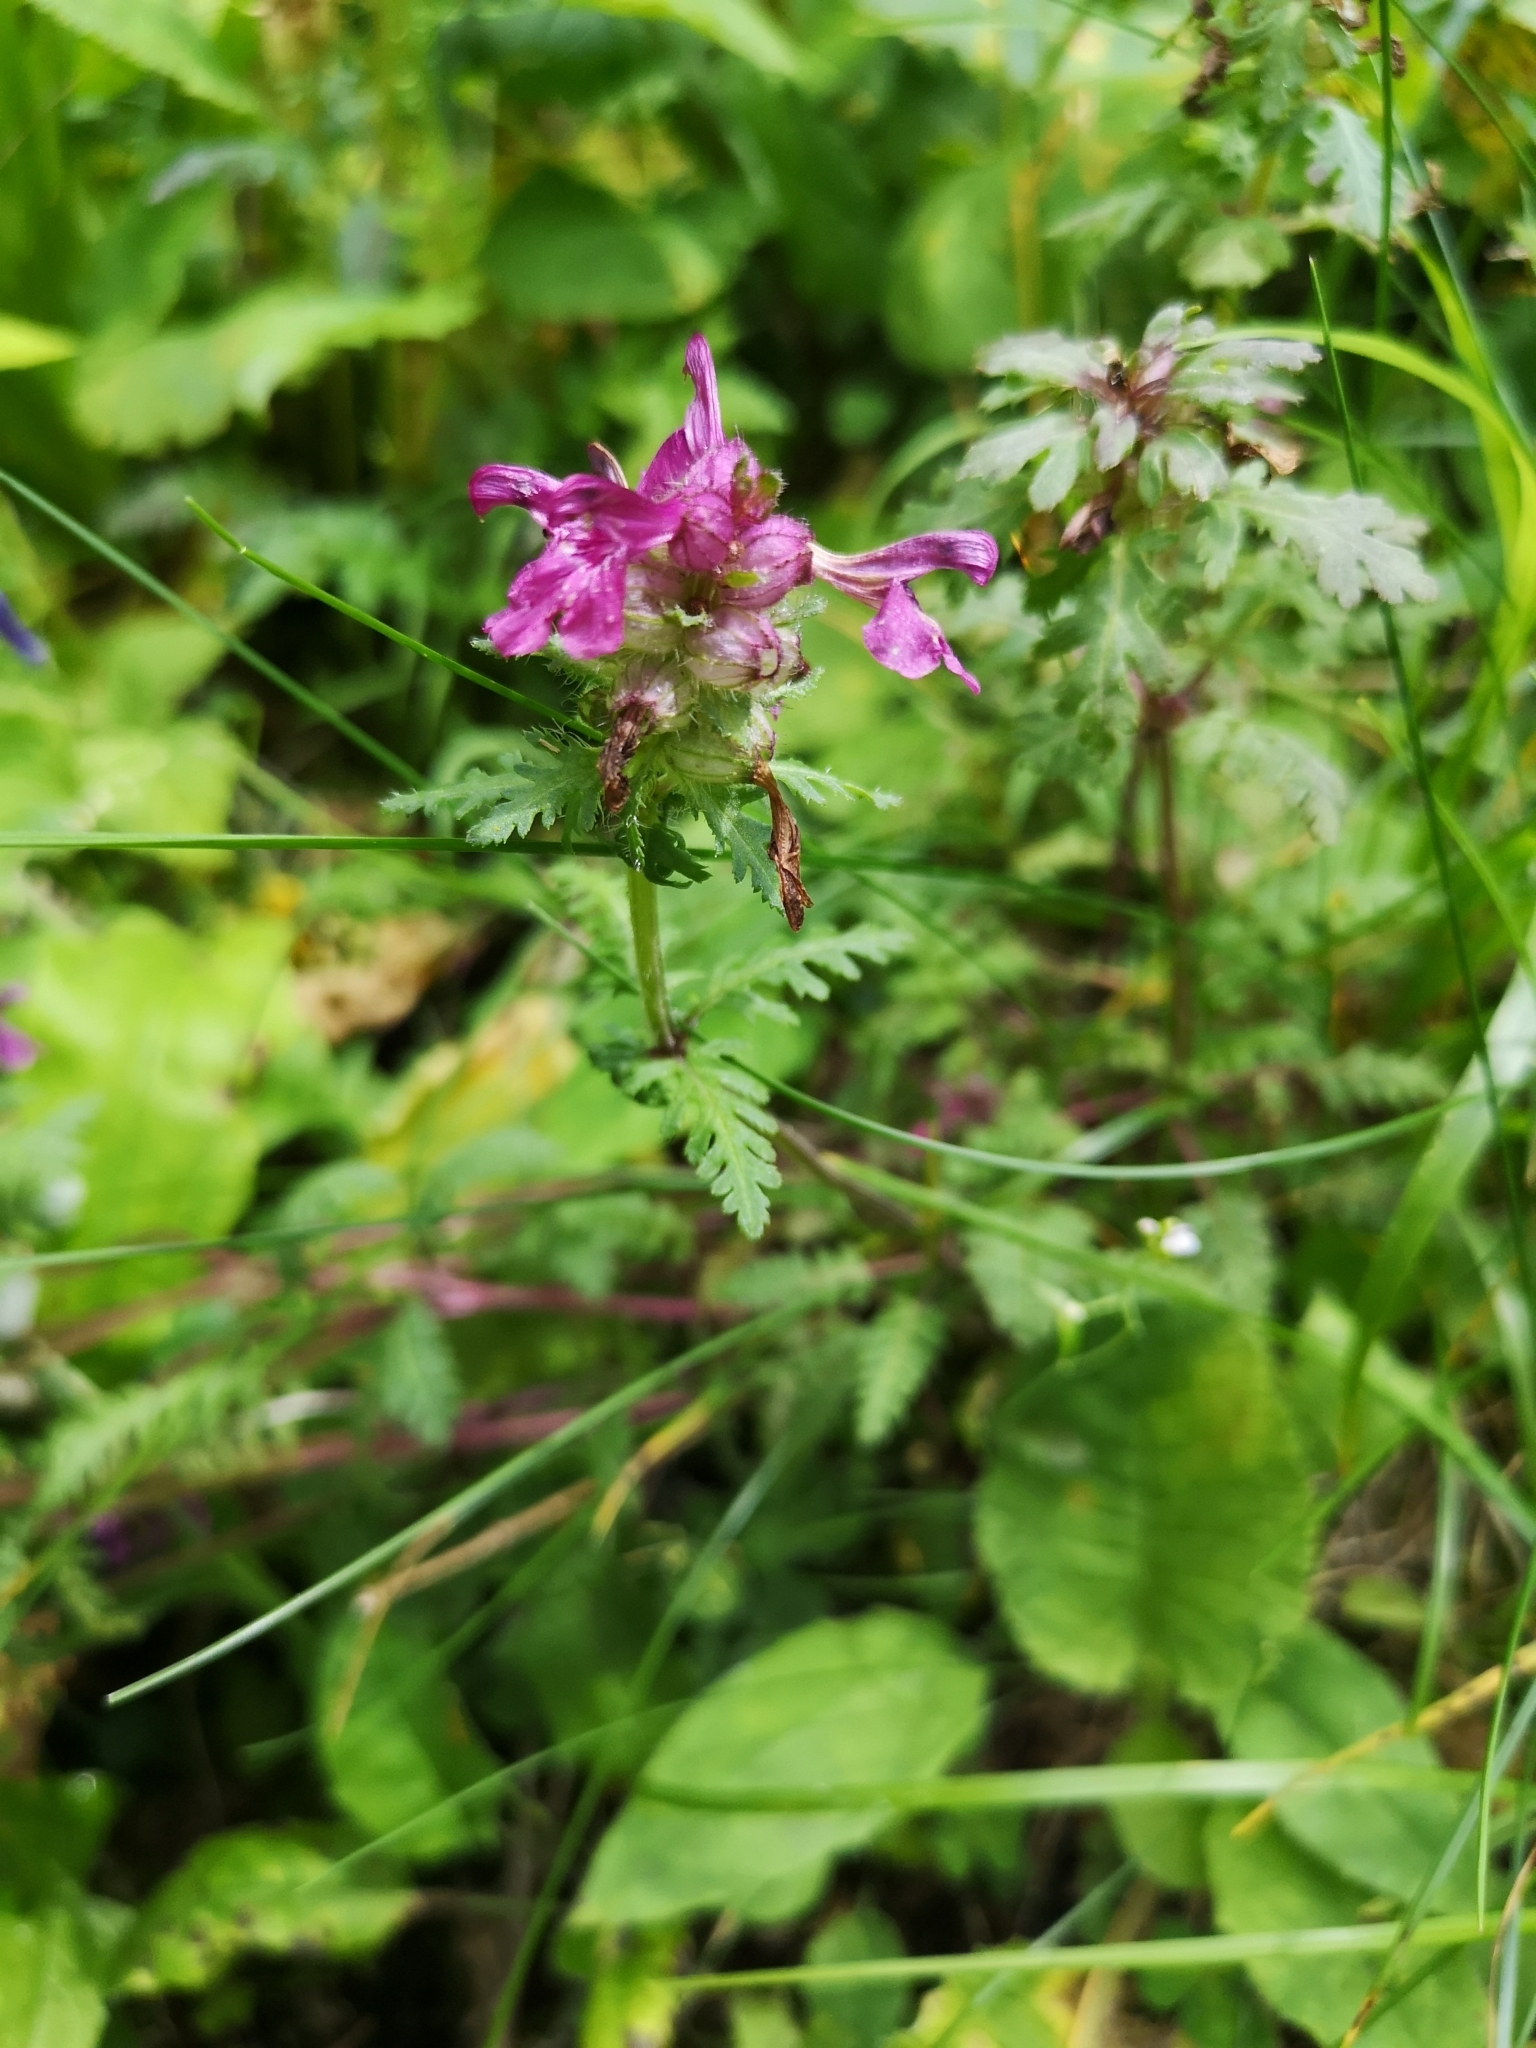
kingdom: Plantae
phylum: Tracheophyta
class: Magnoliopsida
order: Lamiales
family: Orobanchaceae
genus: Pedicularis
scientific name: Pedicularis verticillata
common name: Whorled lousewort
